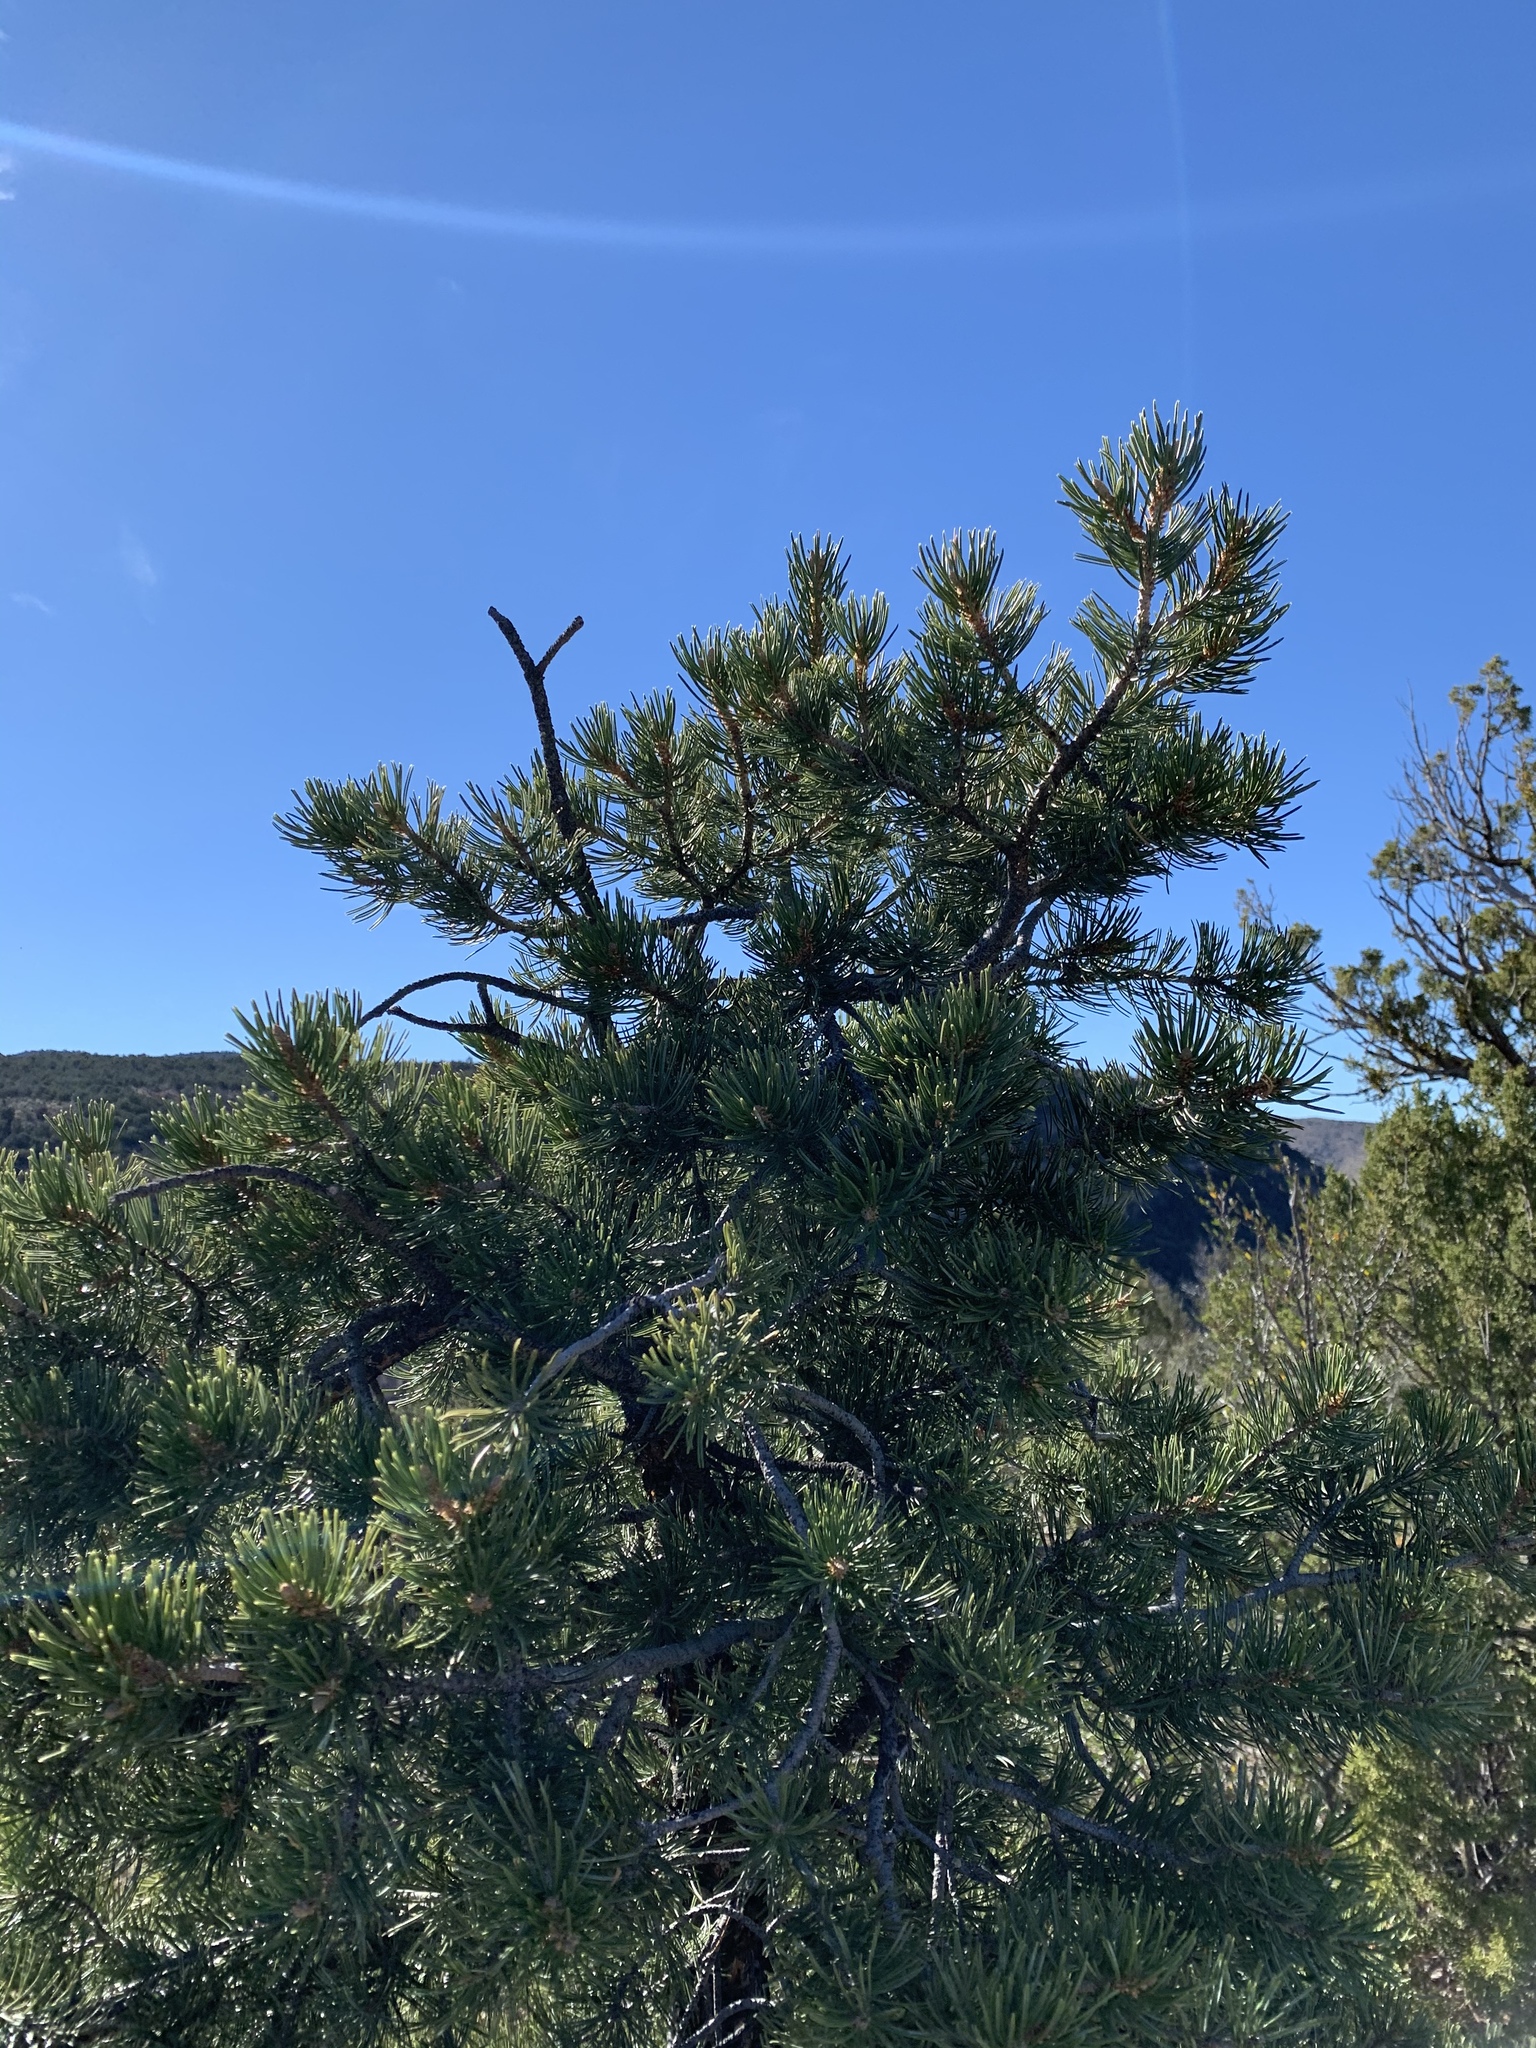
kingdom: Plantae
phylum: Tracheophyta
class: Pinopsida
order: Pinales
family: Pinaceae
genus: Pinus
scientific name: Pinus edulis
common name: Colorado pinyon
